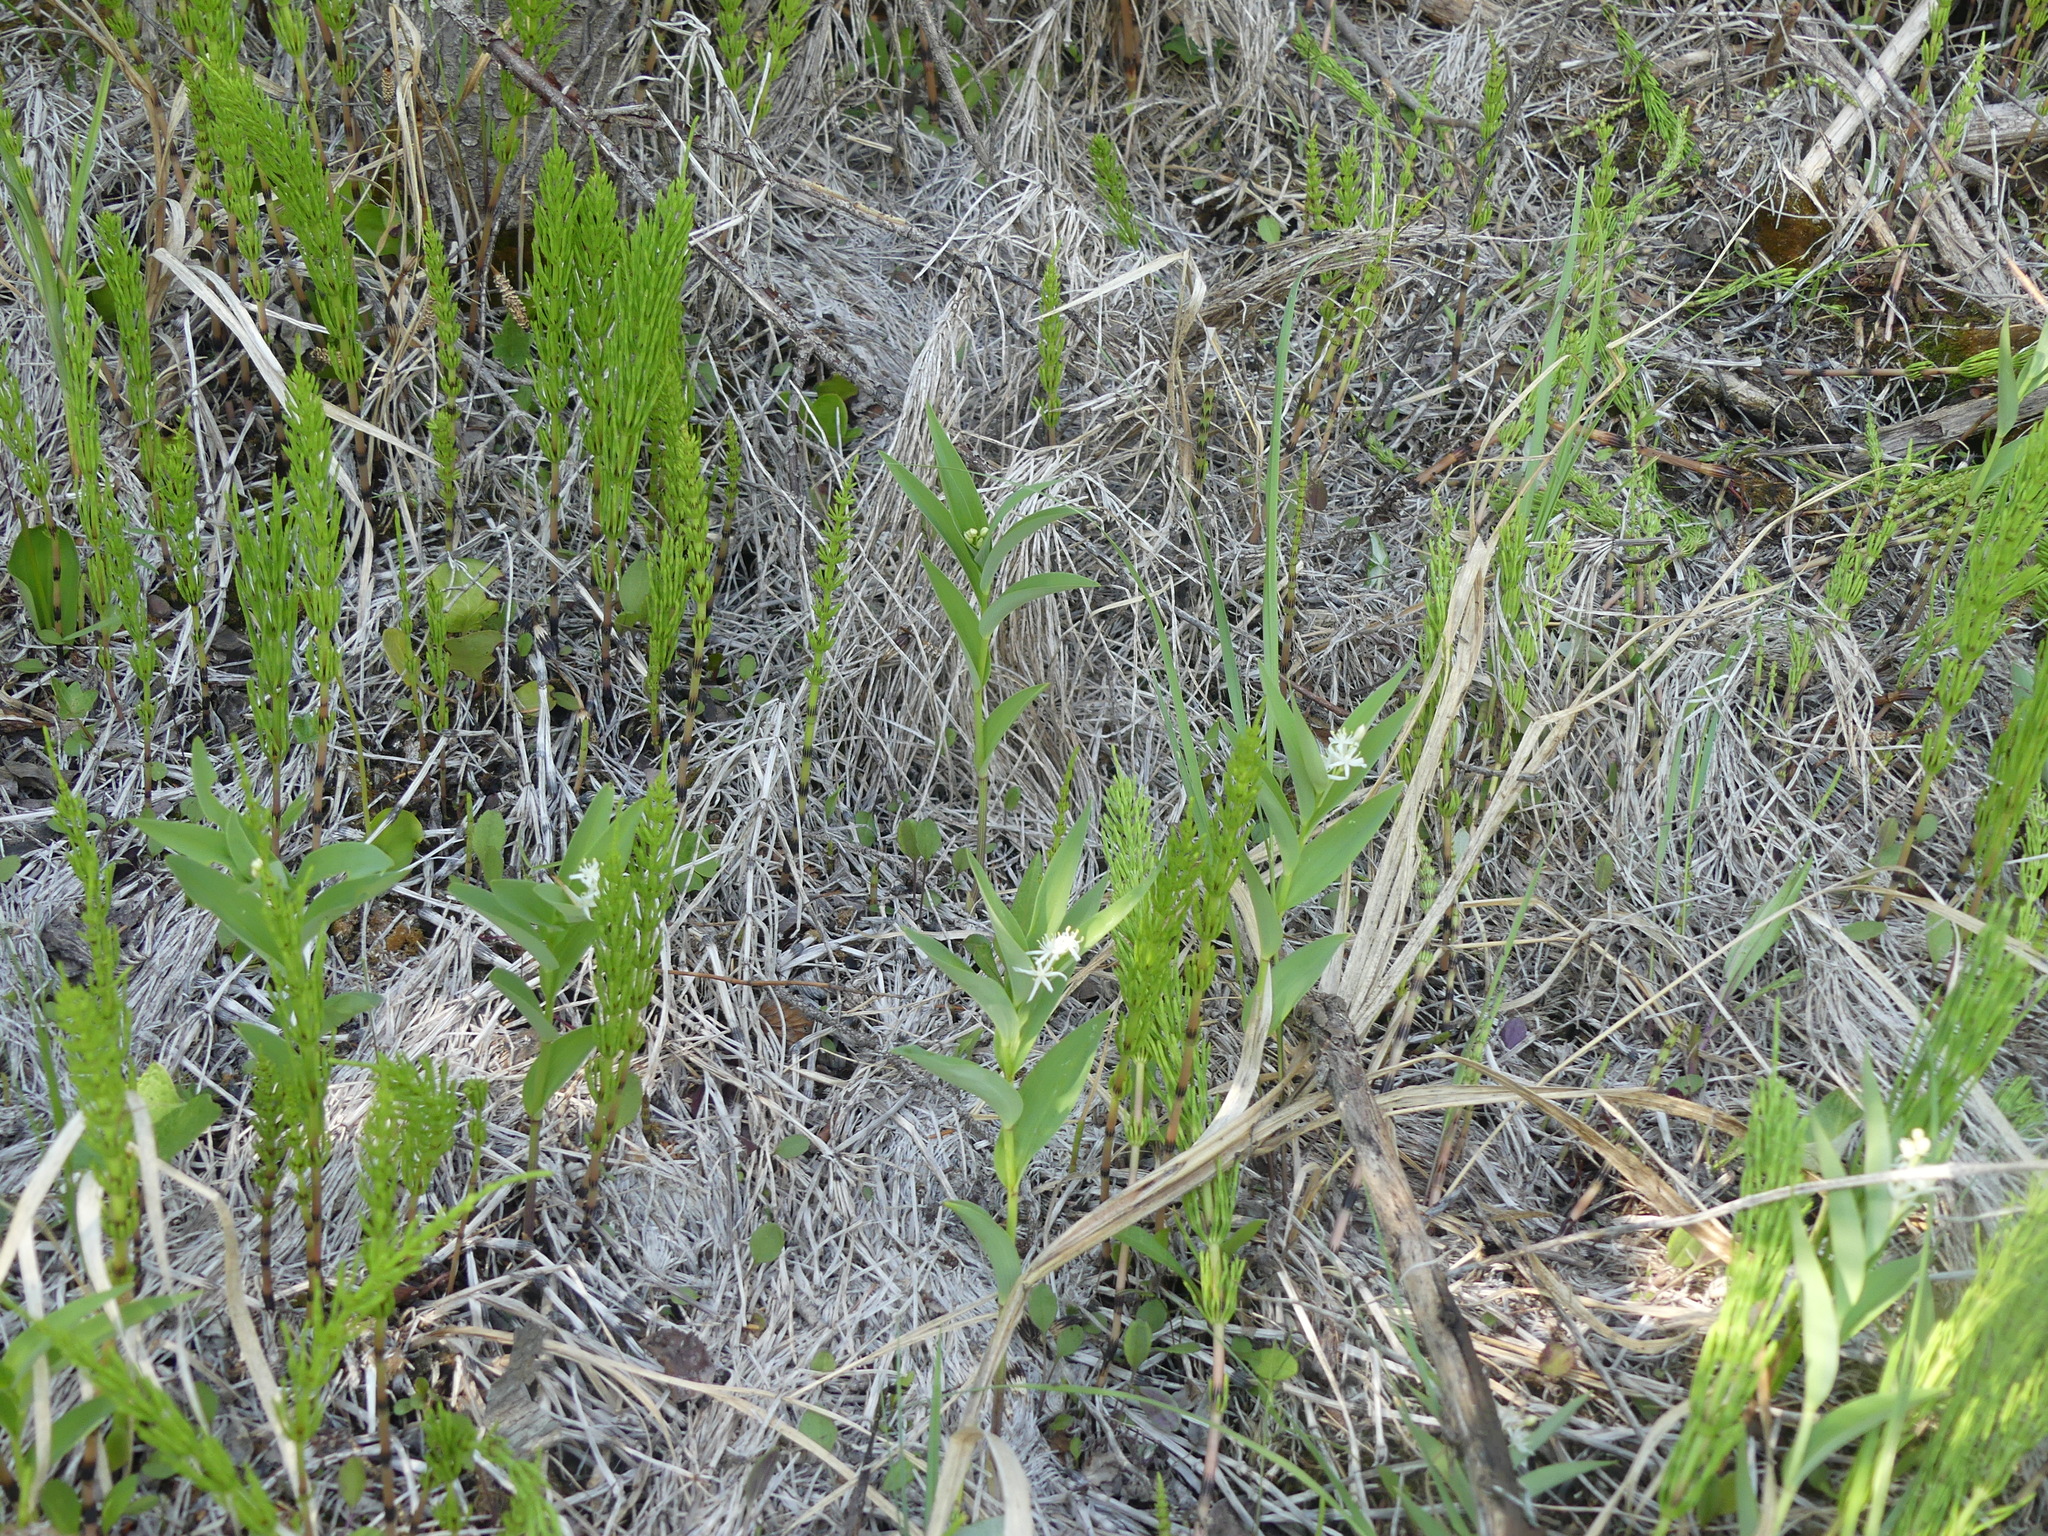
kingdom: Plantae
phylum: Tracheophyta
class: Liliopsida
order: Asparagales
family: Asparagaceae
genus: Maianthemum
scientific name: Maianthemum stellatum
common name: Little false solomon's seal
